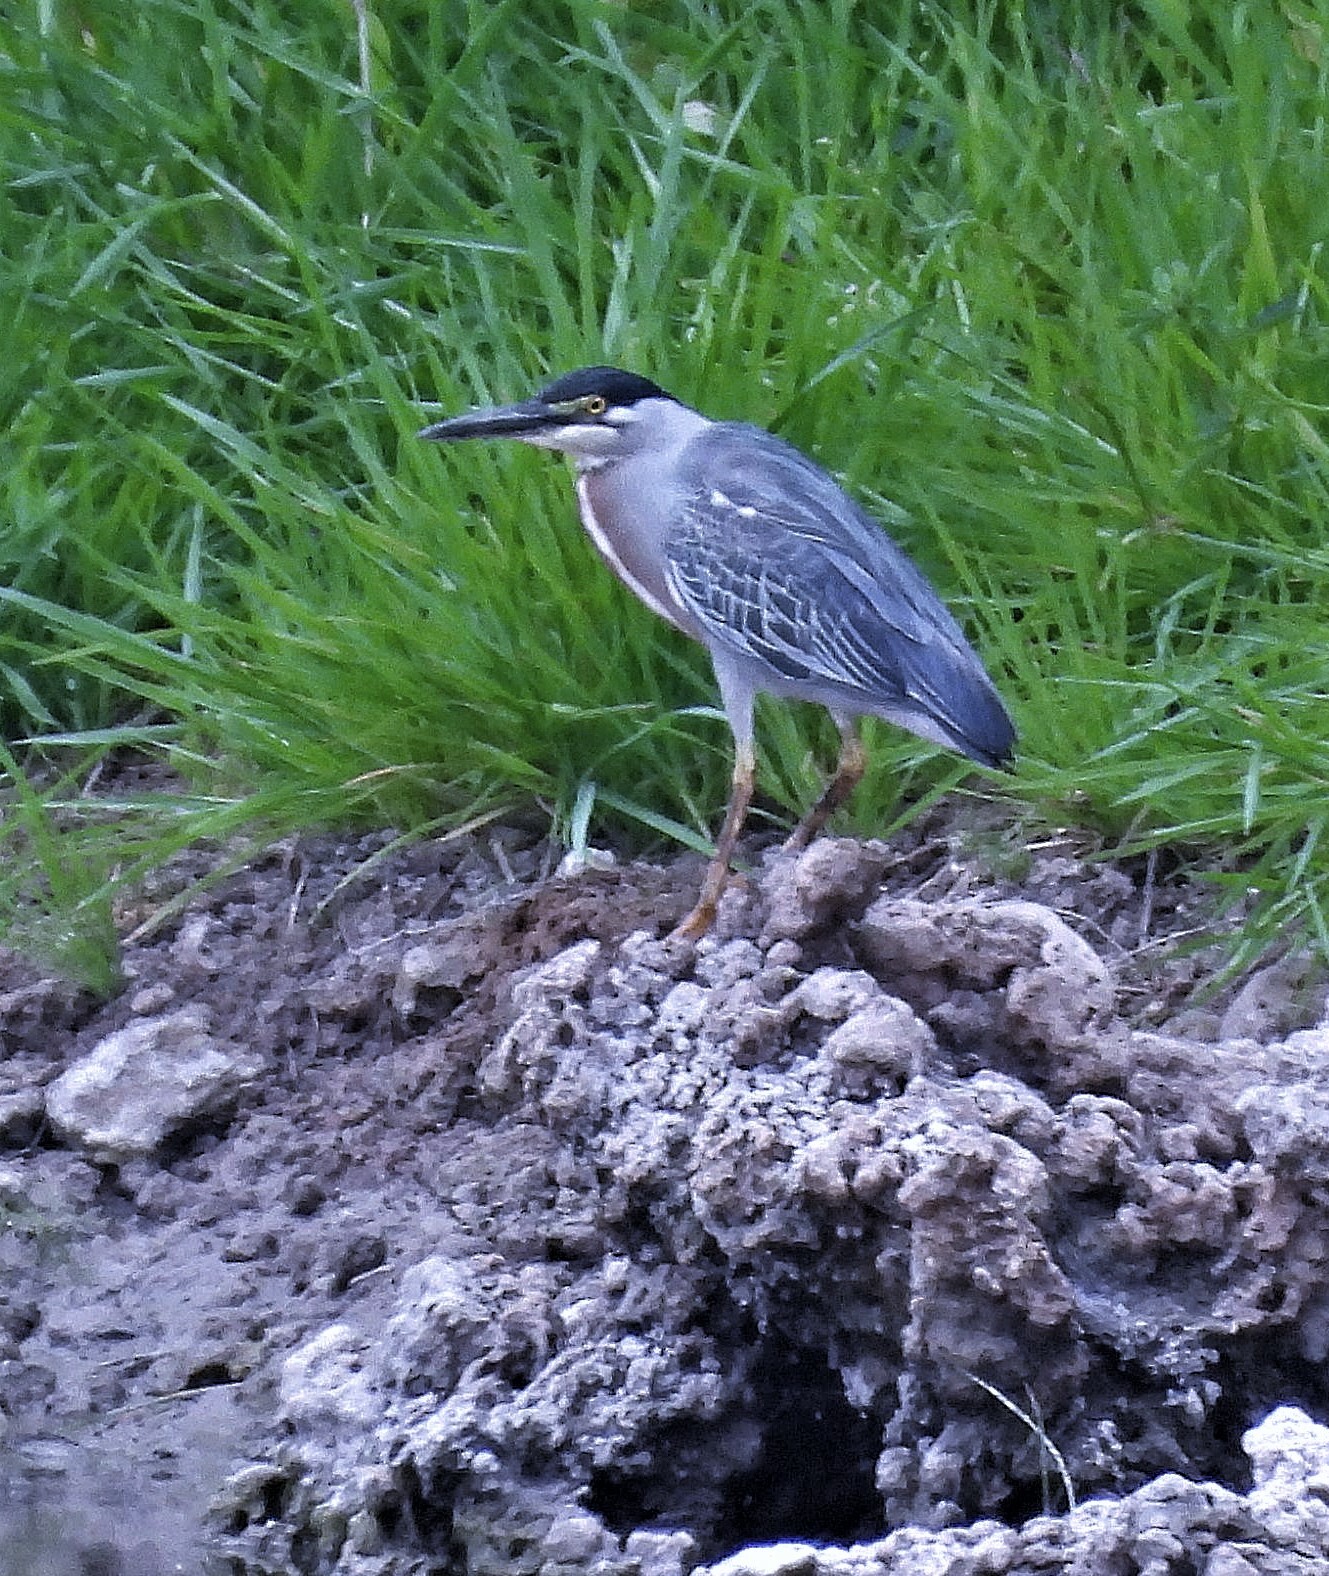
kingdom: Animalia
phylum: Chordata
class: Aves
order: Pelecaniformes
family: Ardeidae
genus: Butorides
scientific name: Butorides striata
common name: Striated heron
